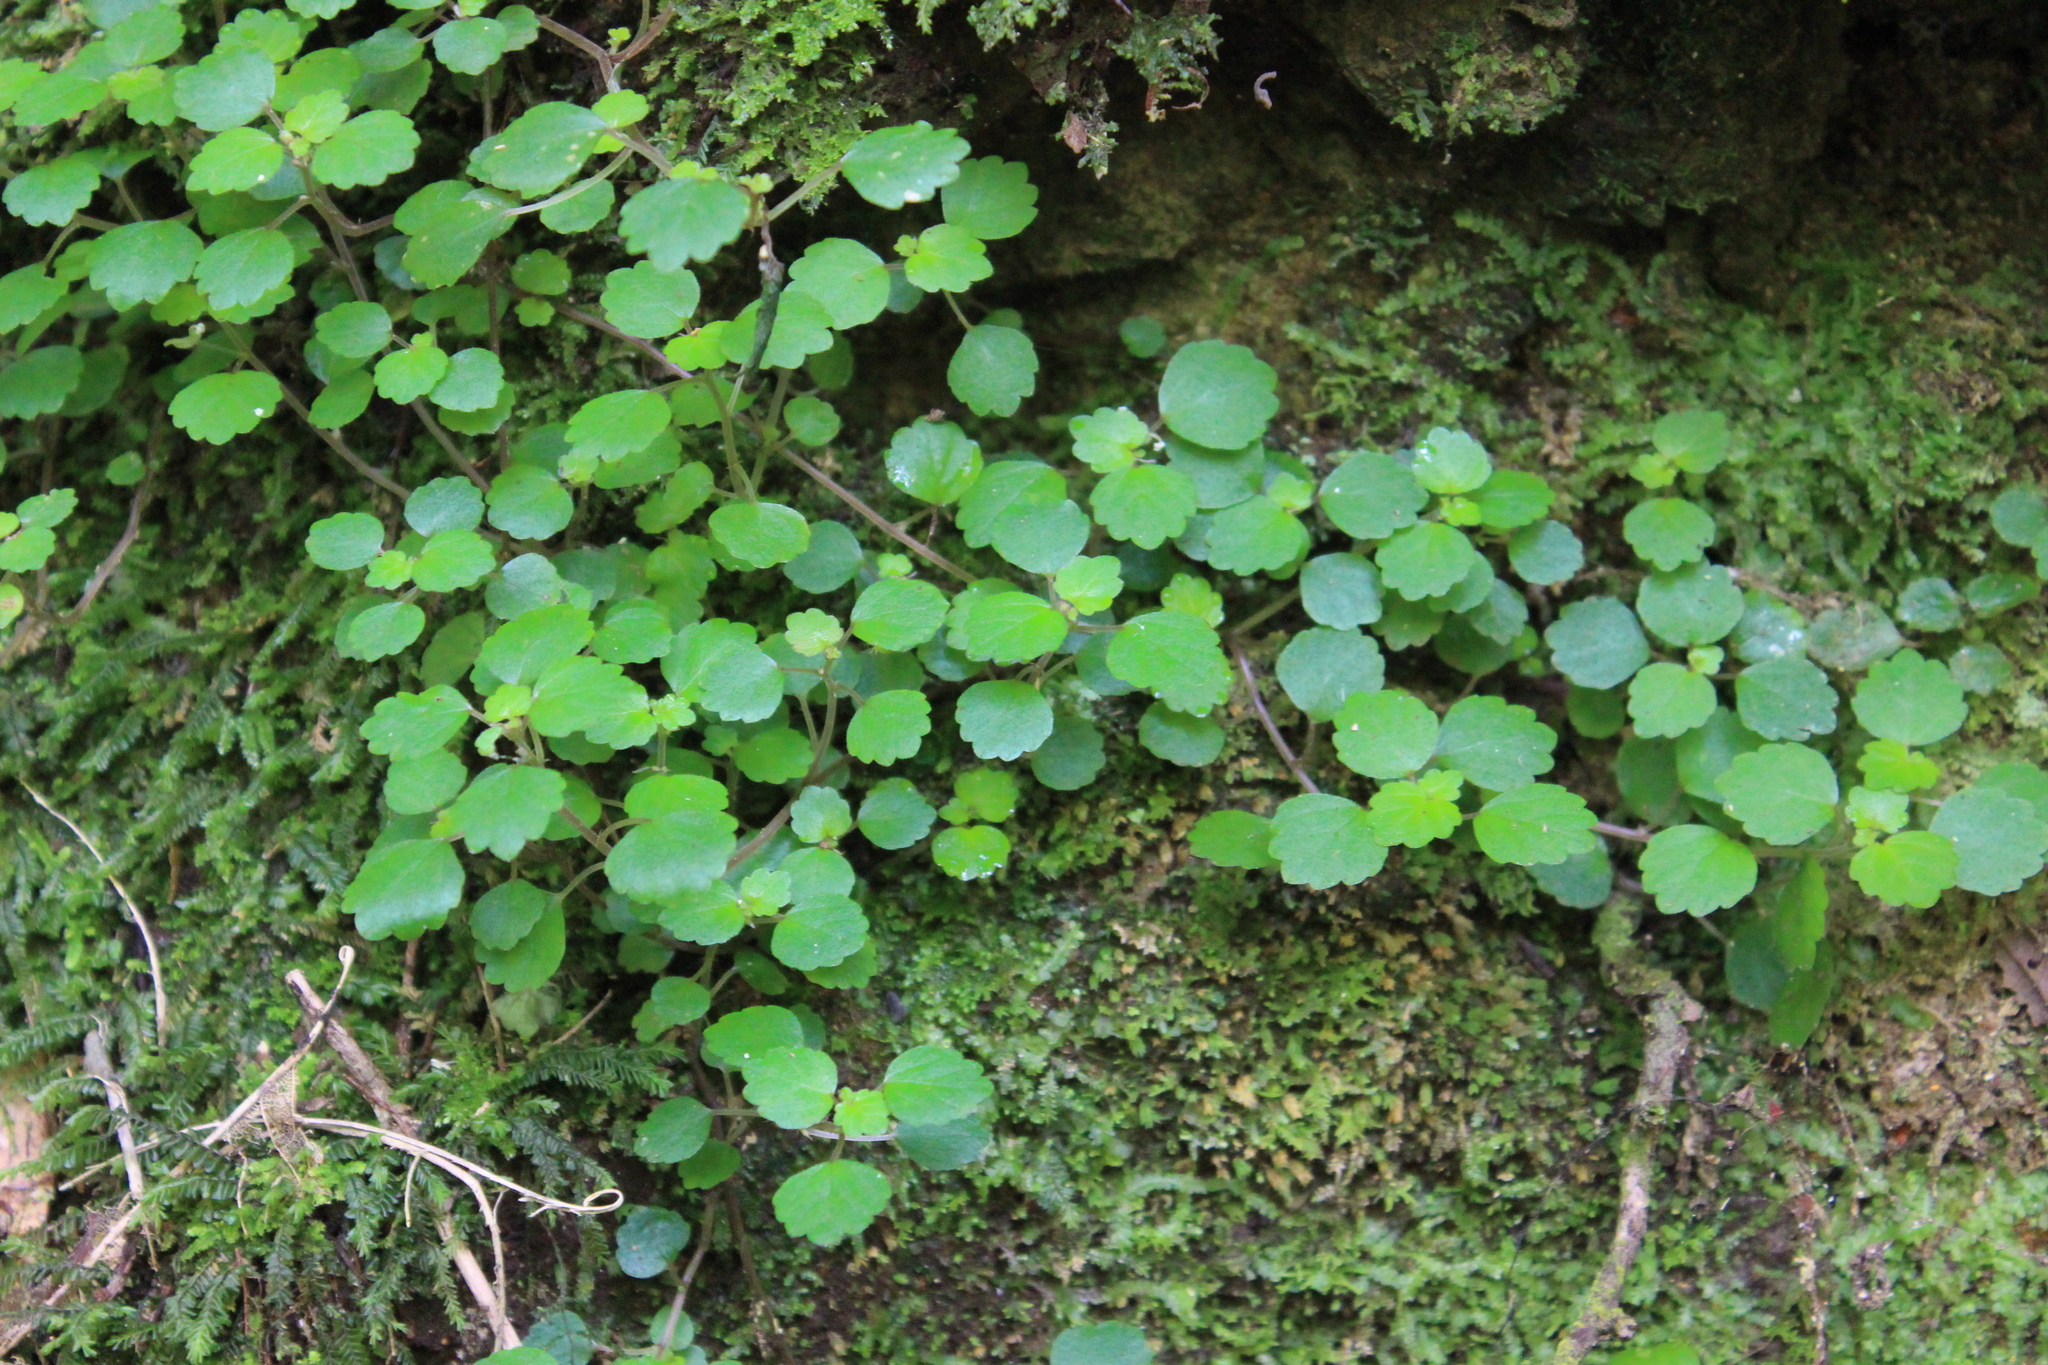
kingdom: Plantae
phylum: Tracheophyta
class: Magnoliopsida
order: Rosales
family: Urticaceae
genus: Australina
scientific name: Australina pusilla
